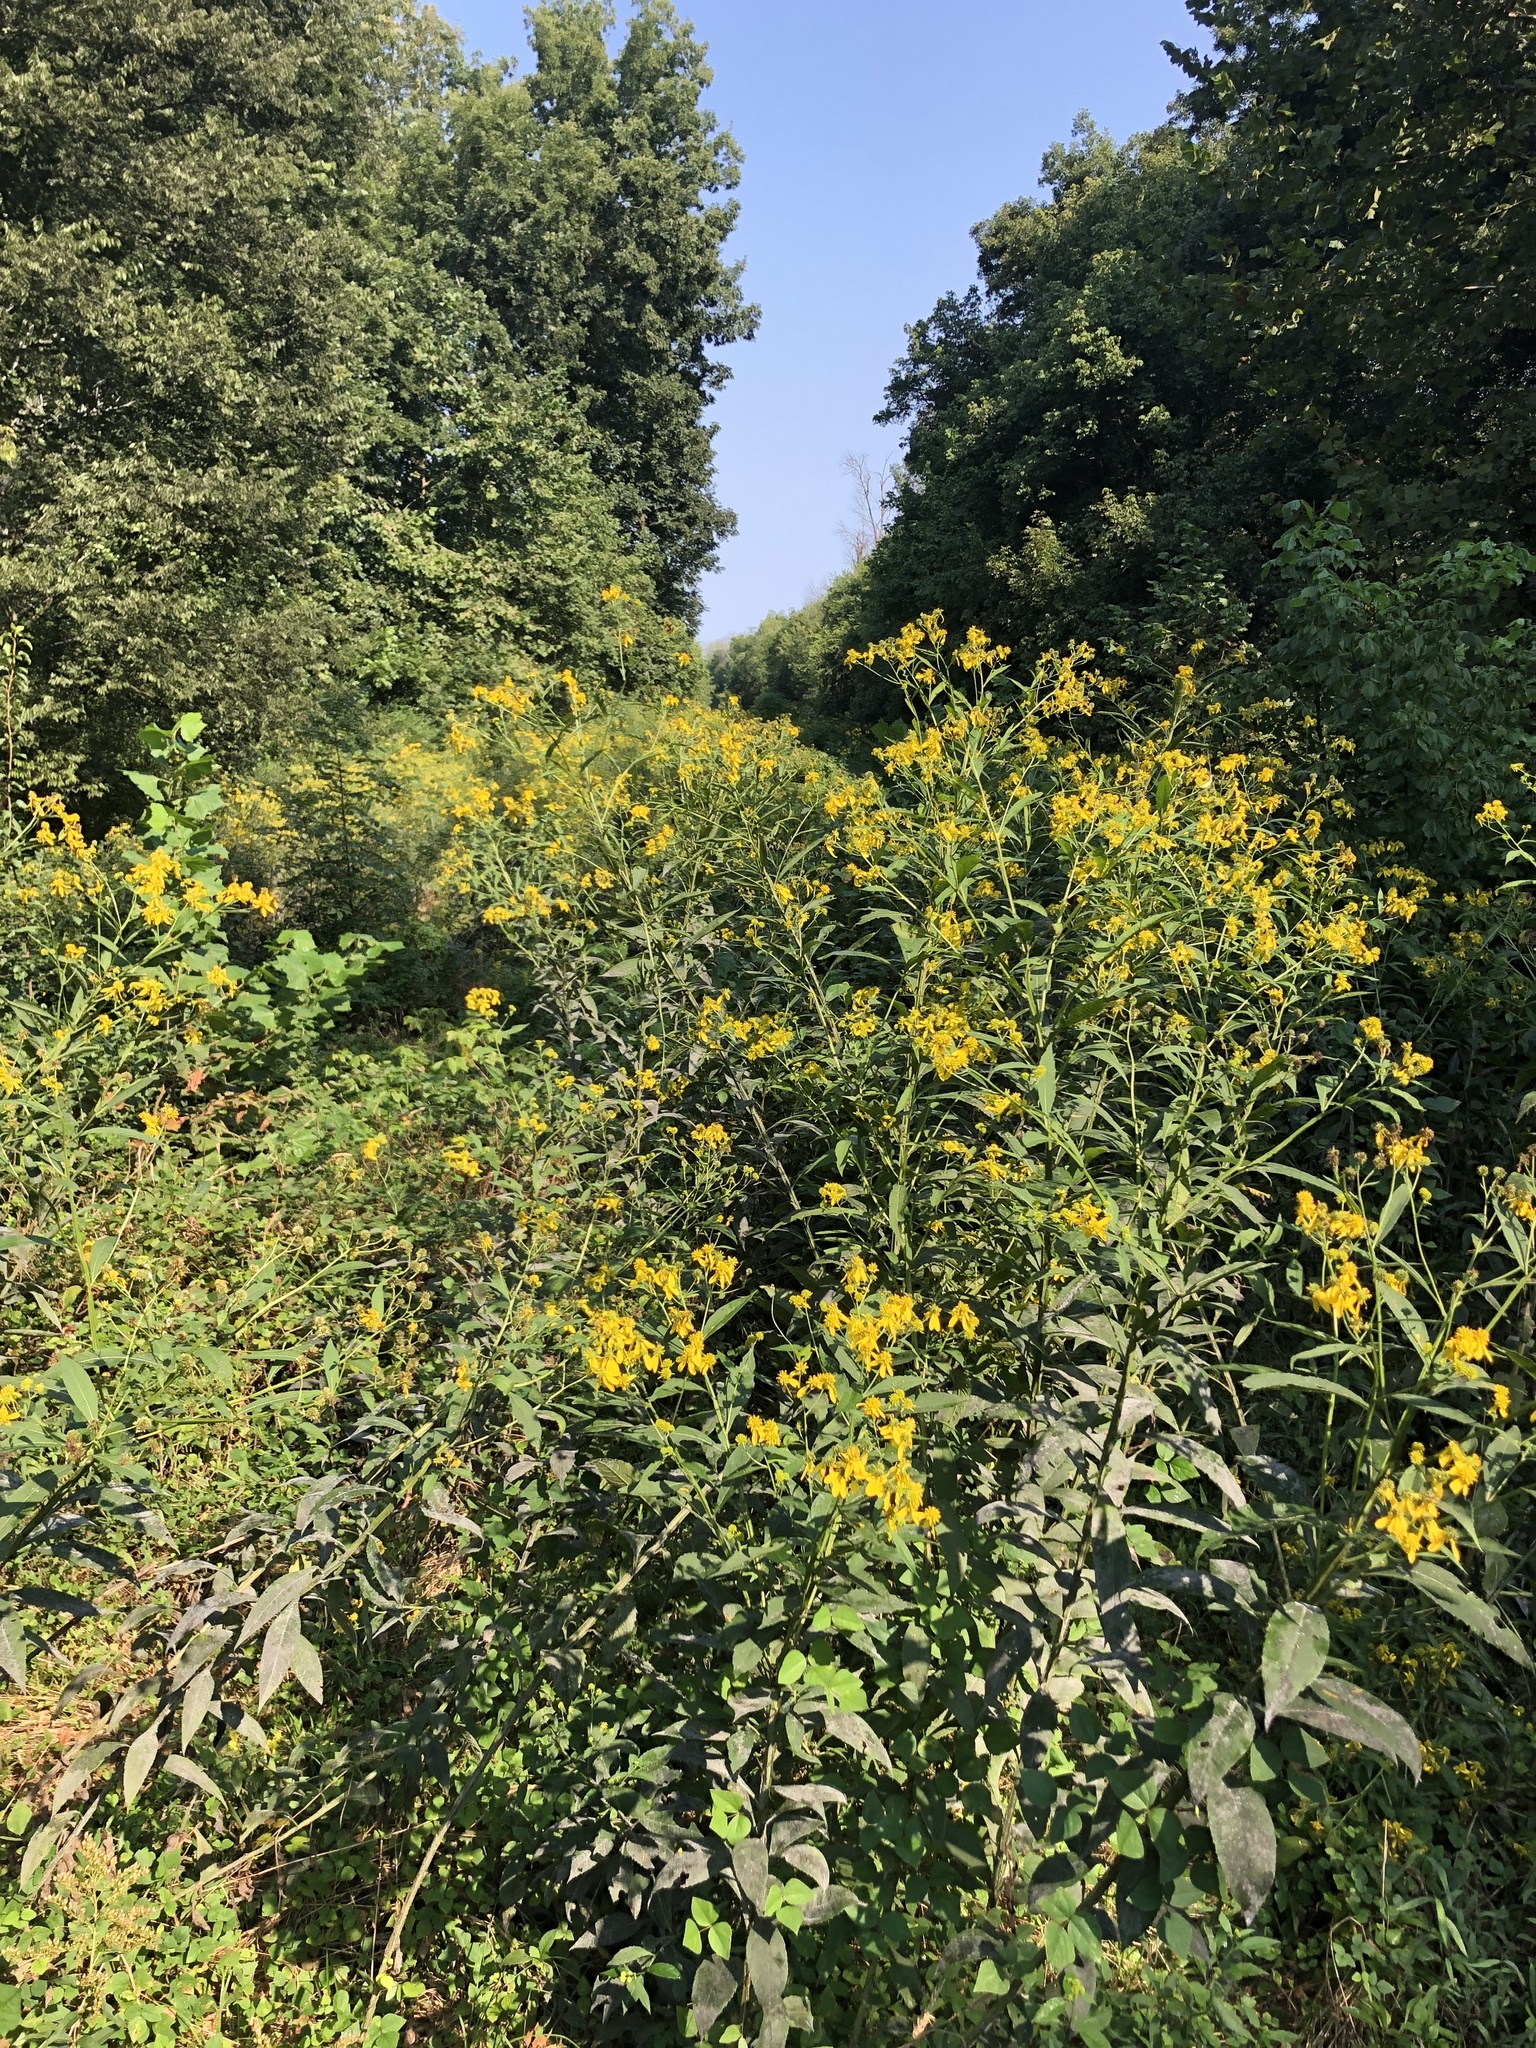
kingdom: Plantae
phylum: Tracheophyta
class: Magnoliopsida
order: Asterales
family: Asteraceae
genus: Verbesina
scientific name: Verbesina alternifolia
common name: Wingstem
